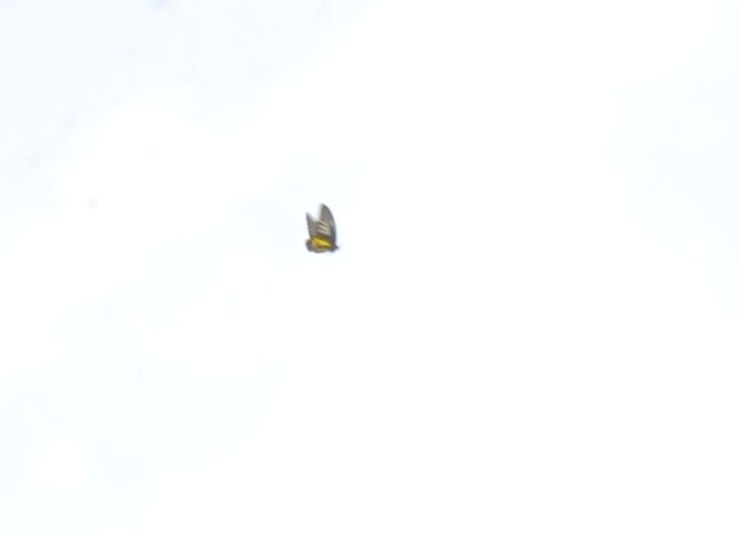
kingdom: Animalia
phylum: Arthropoda
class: Insecta
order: Lepidoptera
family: Papilionidae
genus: Troides
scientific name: Troides minos
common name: Malabar birdwing
